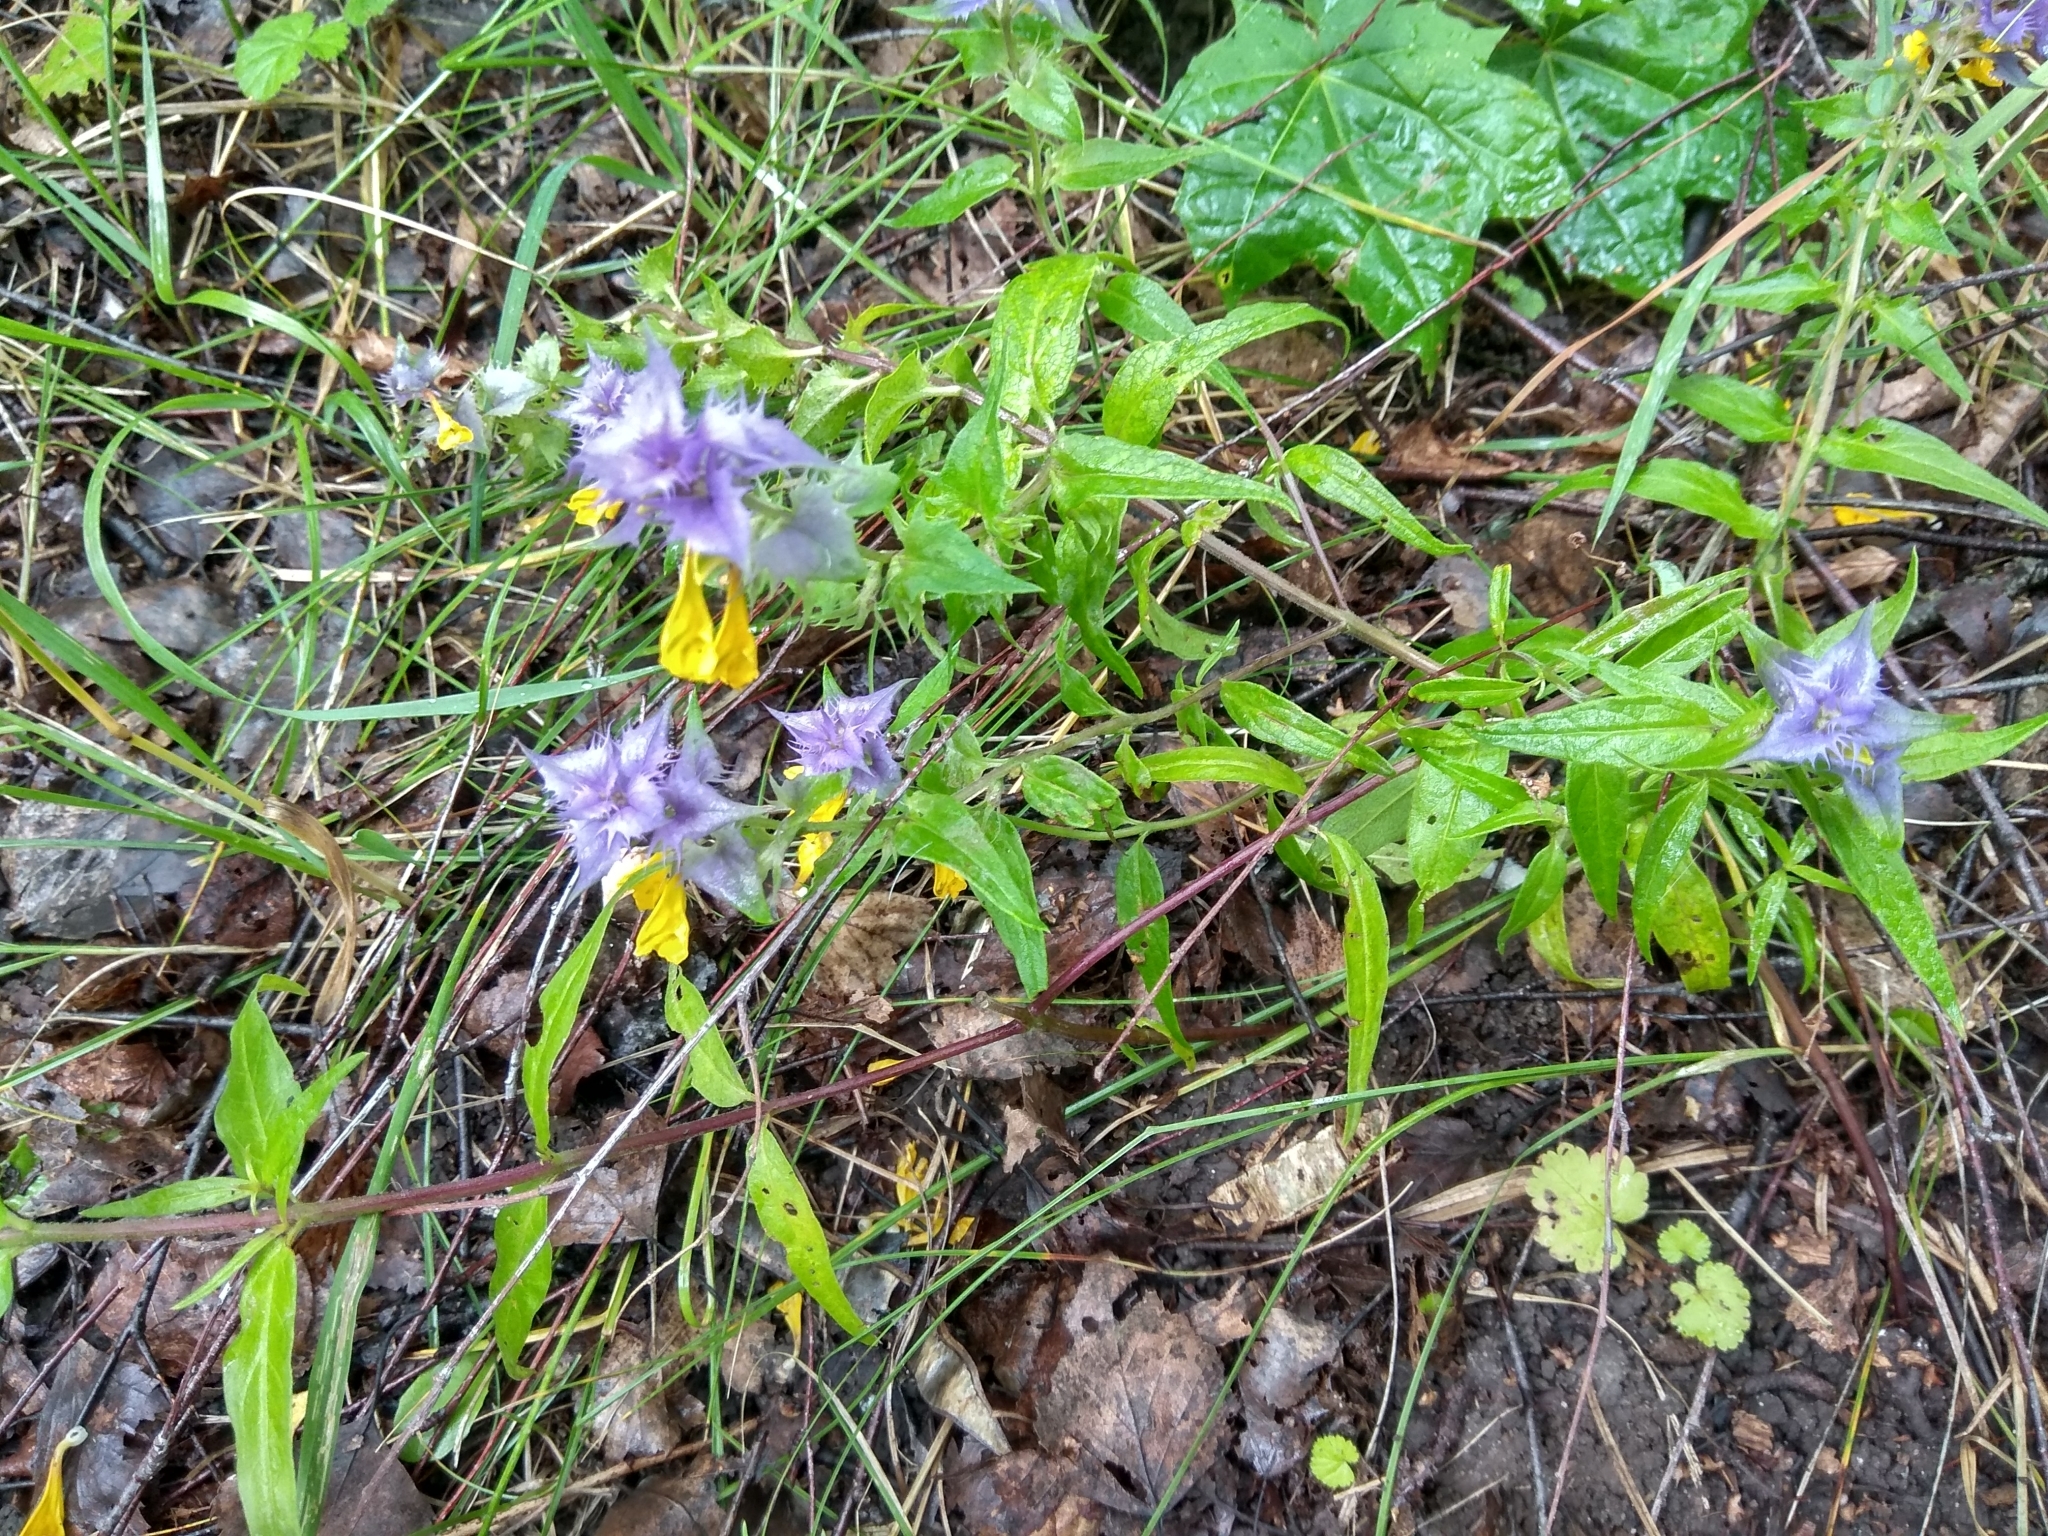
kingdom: Plantae
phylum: Tracheophyta
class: Magnoliopsida
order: Lamiales
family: Orobanchaceae
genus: Melampyrum
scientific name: Melampyrum nemorosum
